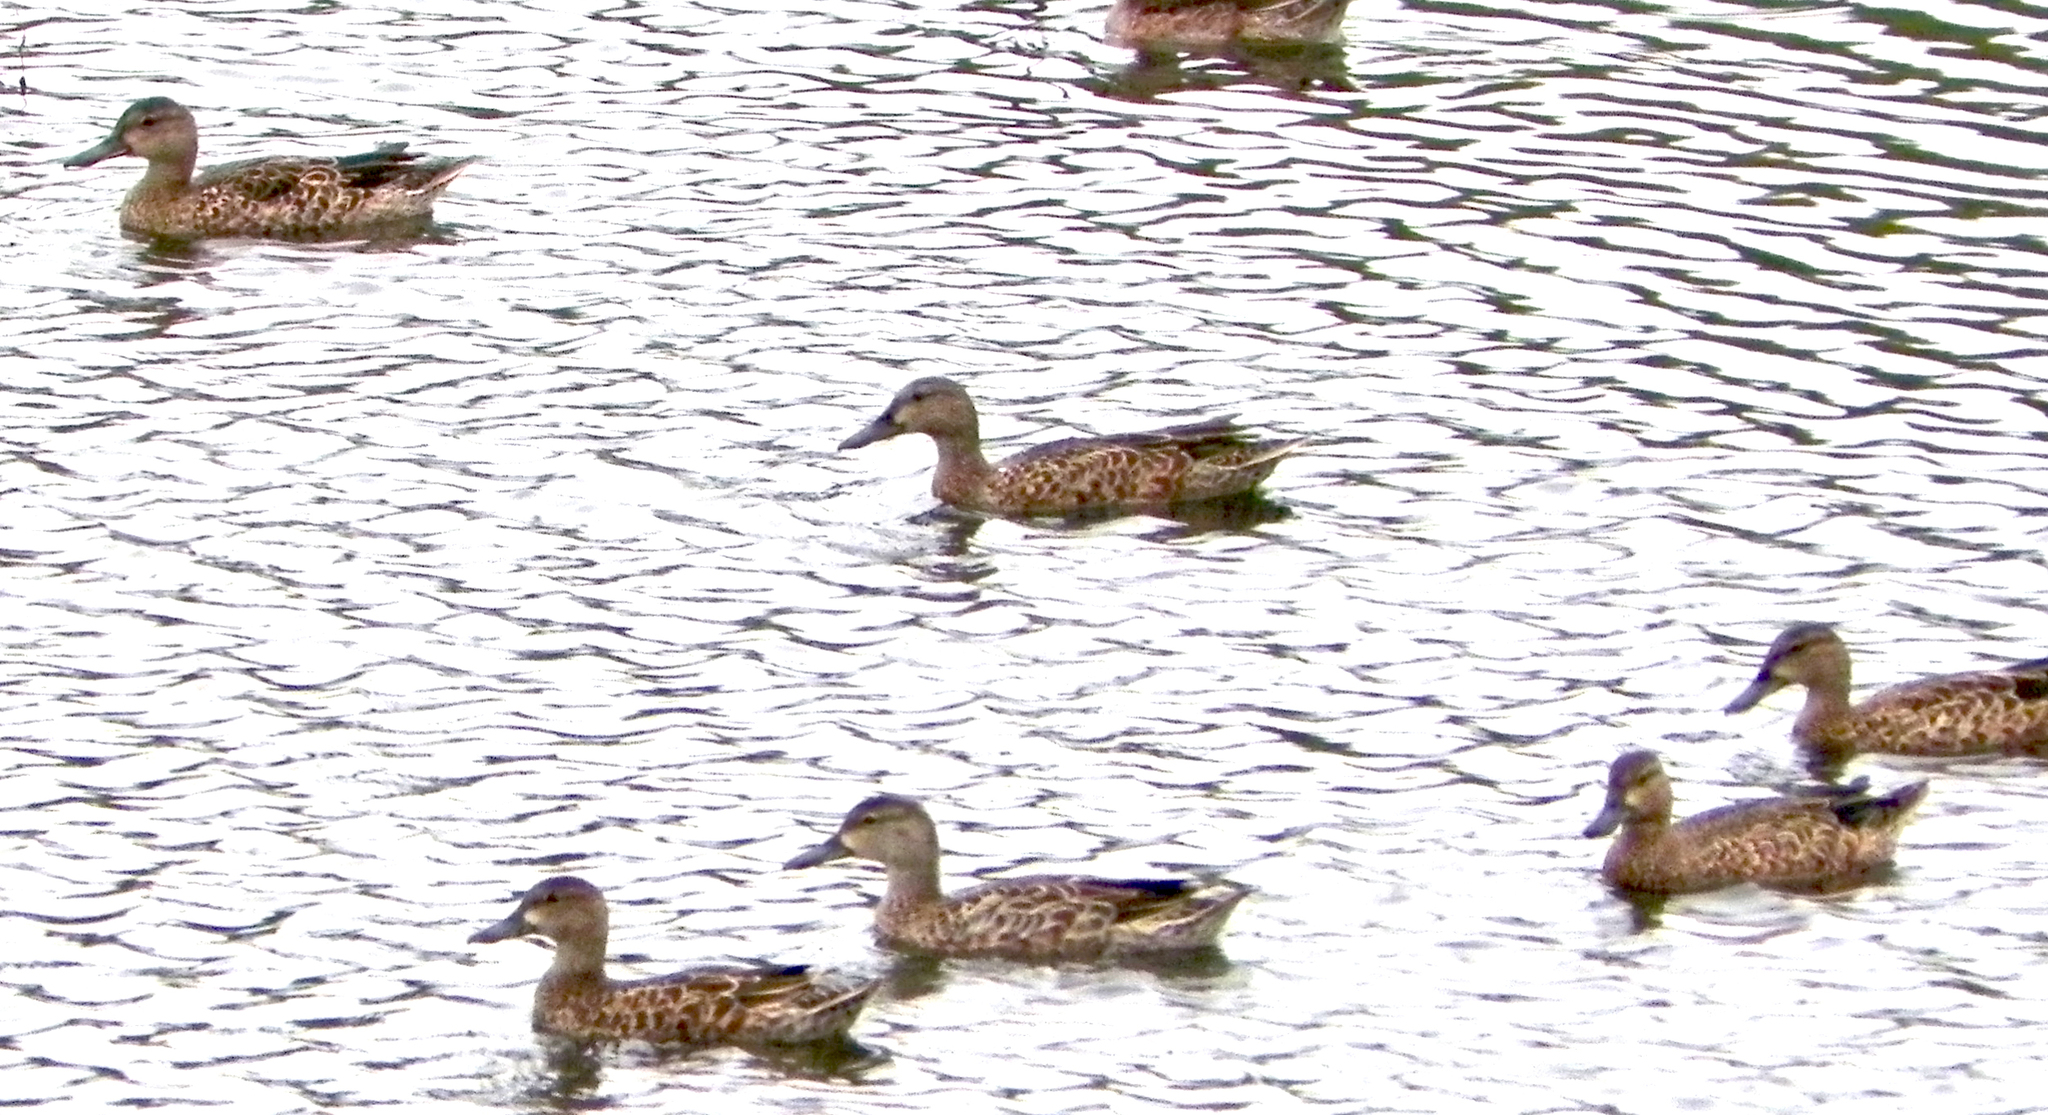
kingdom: Animalia
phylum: Chordata
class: Aves
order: Anseriformes
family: Anatidae
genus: Spatula
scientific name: Spatula discors
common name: Blue-winged teal
